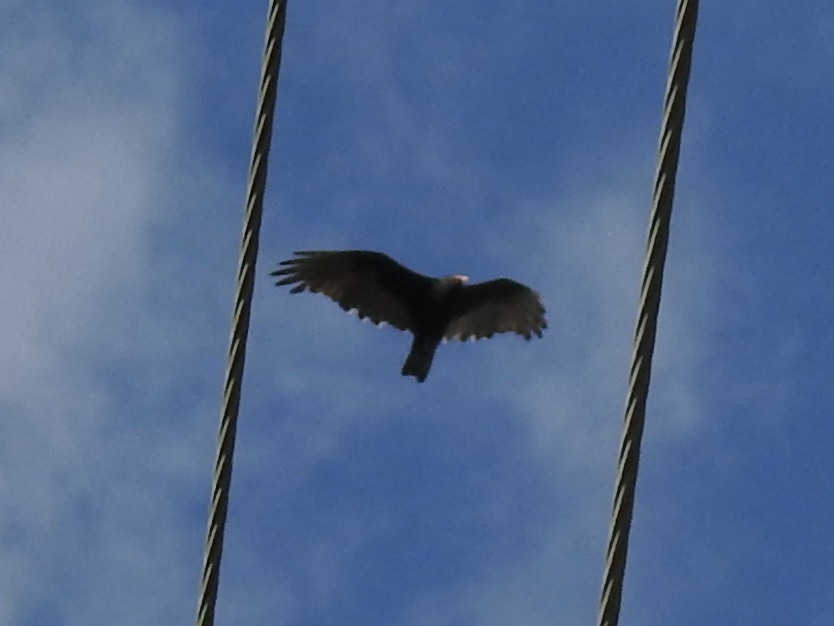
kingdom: Animalia
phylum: Chordata
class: Aves
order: Accipitriformes
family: Cathartidae
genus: Cathartes
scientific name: Cathartes aura
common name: Turkey vulture
